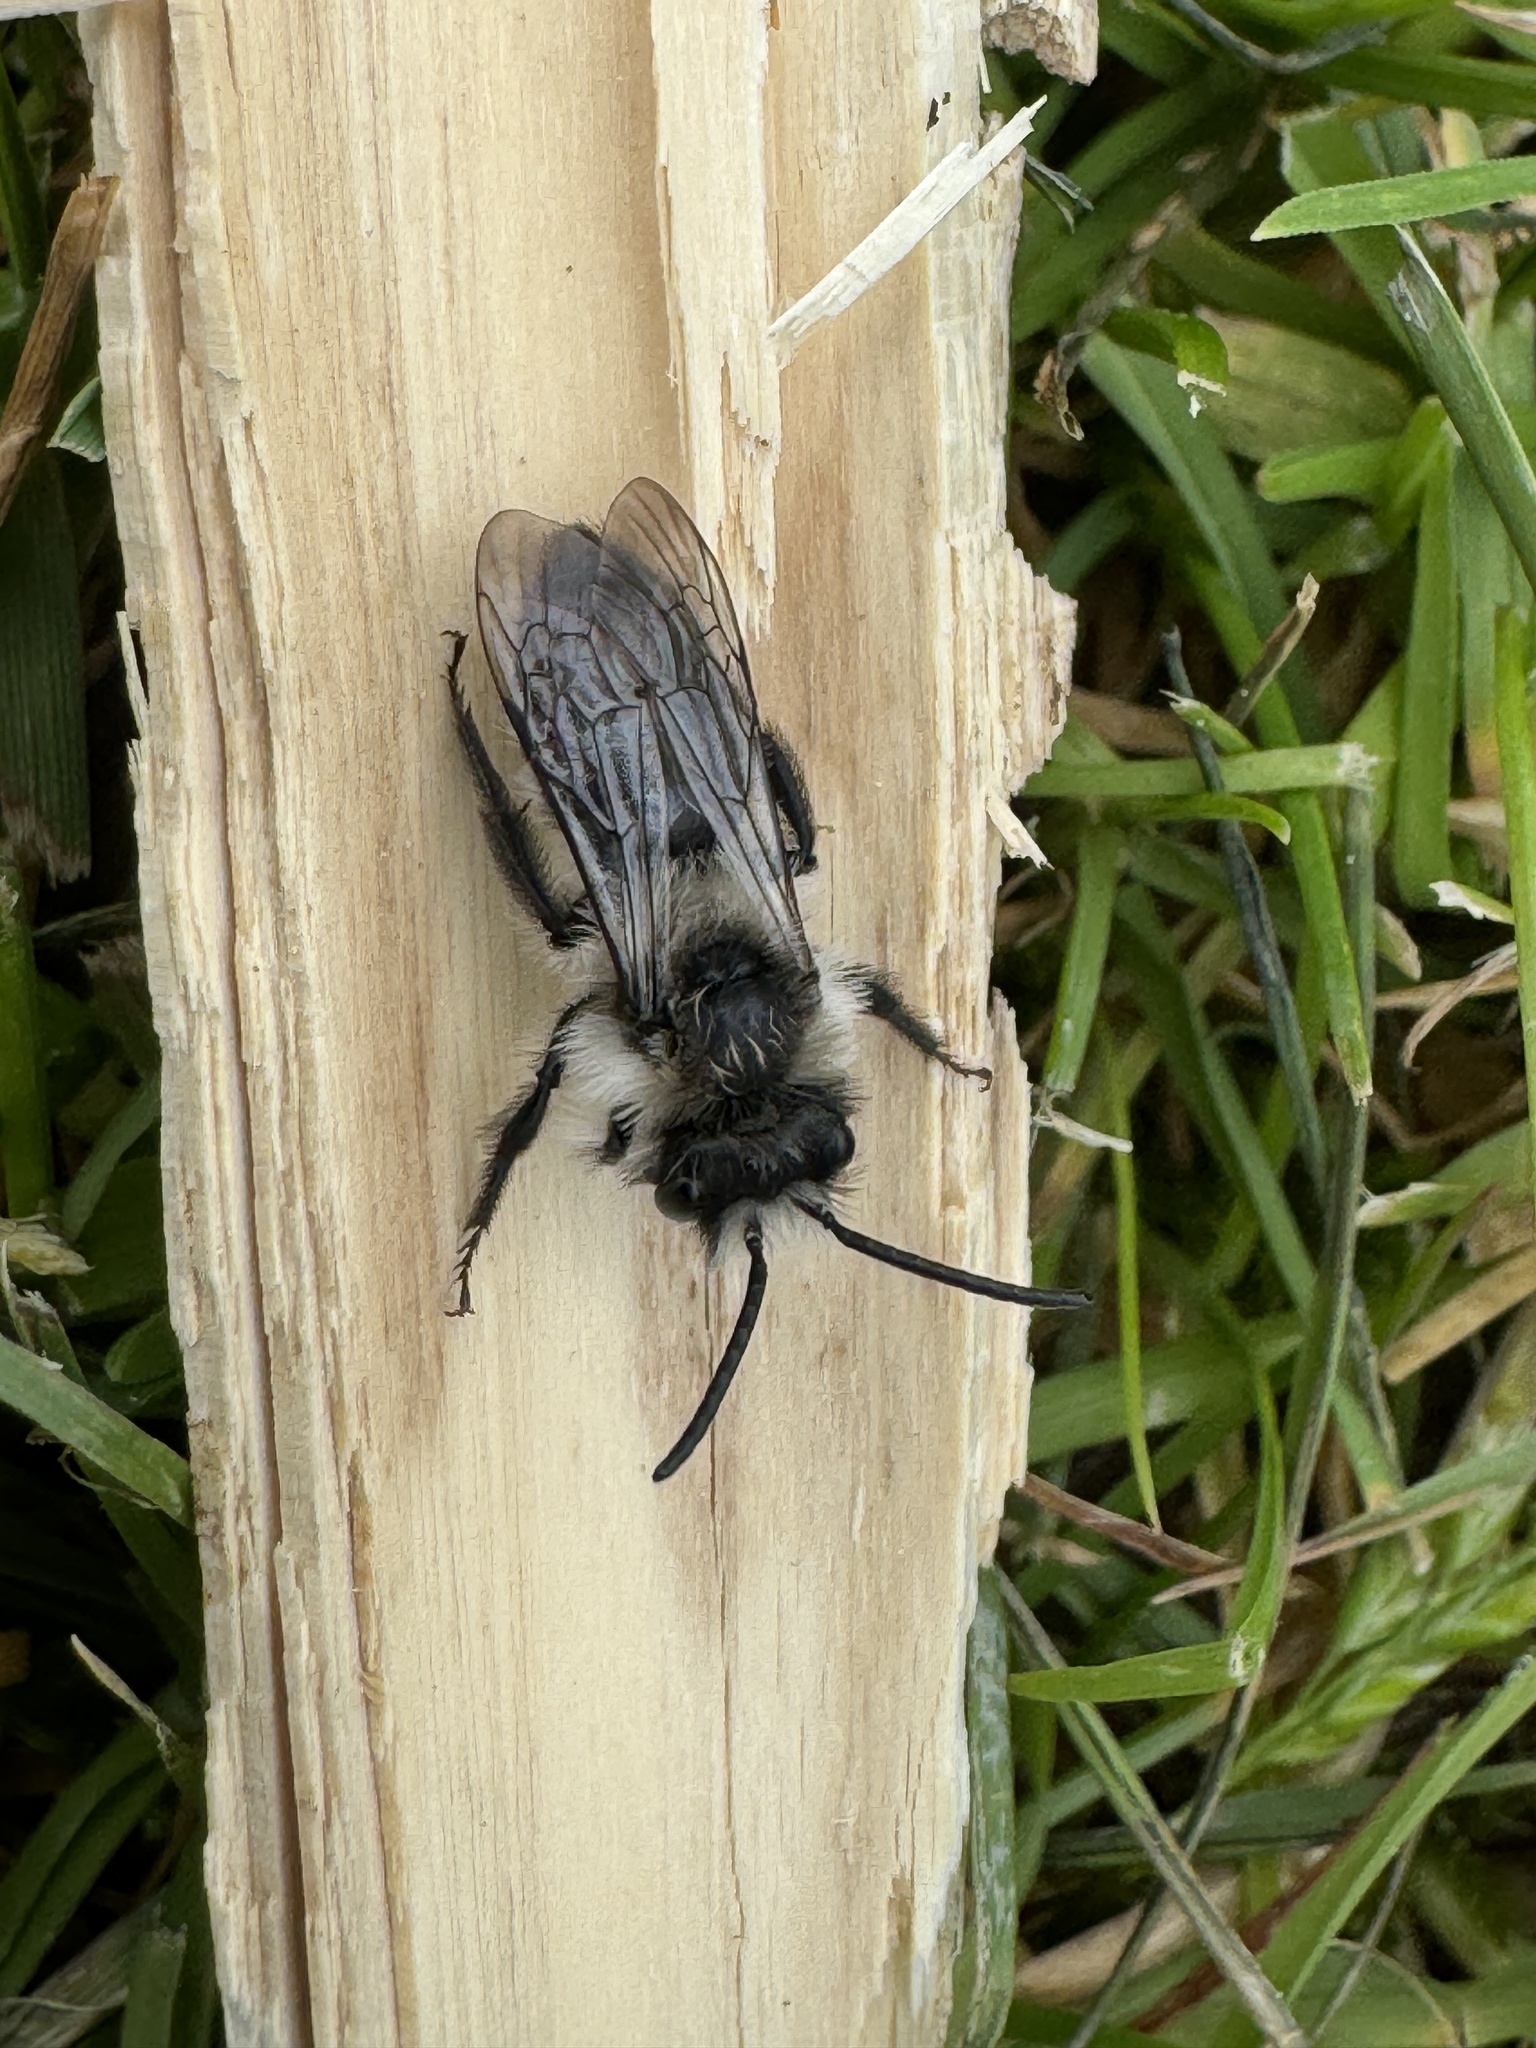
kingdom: Animalia
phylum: Arthropoda
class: Insecta
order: Hymenoptera
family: Andrenidae
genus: Andrena
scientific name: Andrena cineraria
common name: Ashy mining bee
